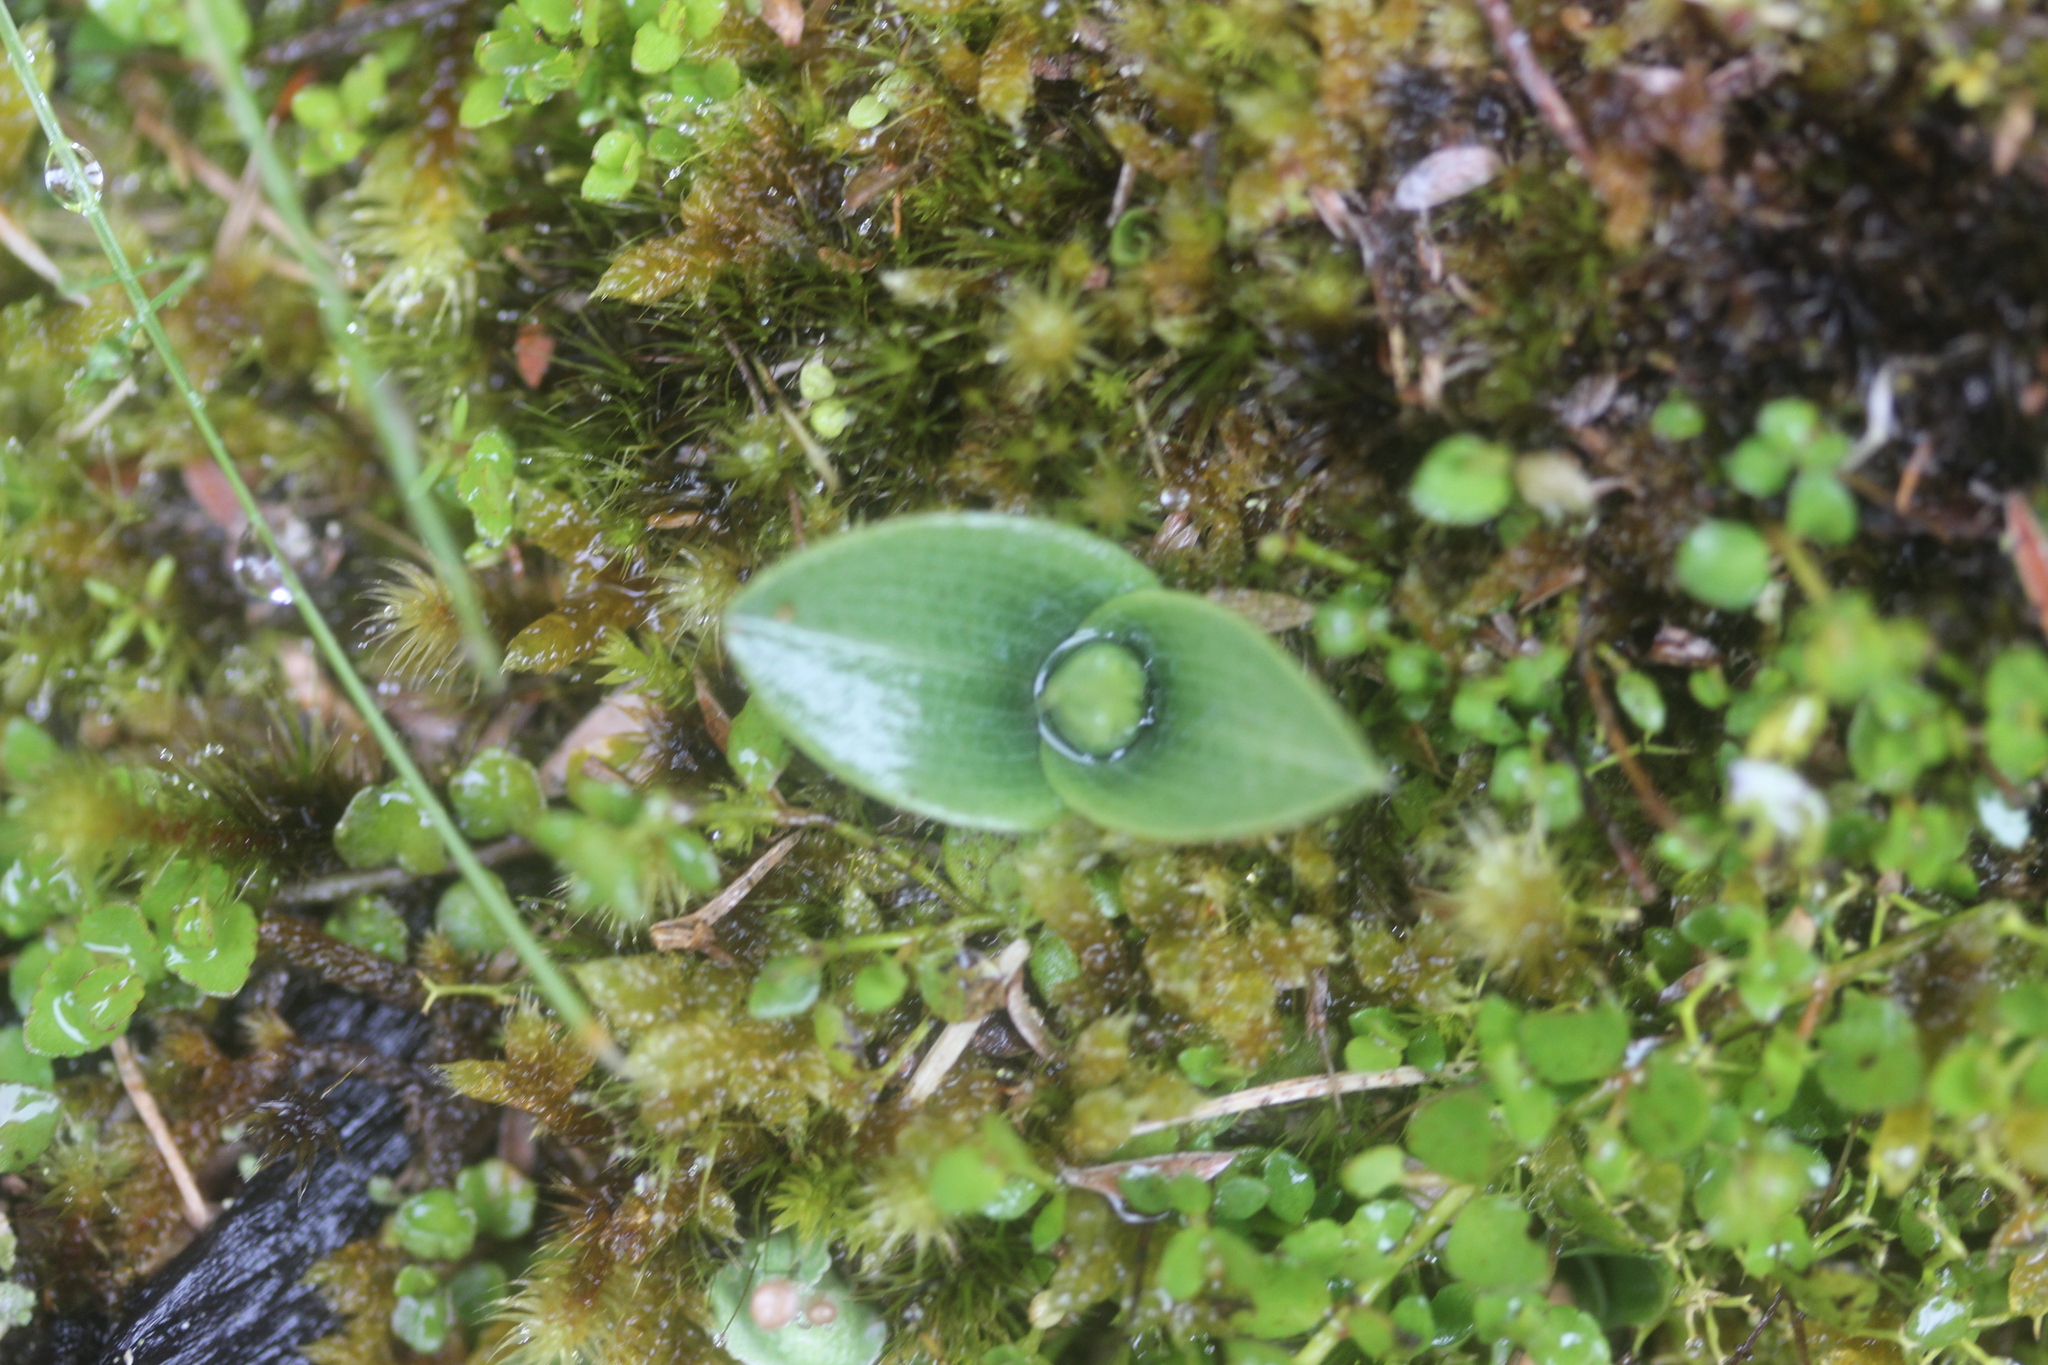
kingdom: Plantae
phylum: Tracheophyta
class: Liliopsida
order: Asparagales
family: Orchidaceae
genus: Chiloglottis
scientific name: Chiloglottis cornuta
